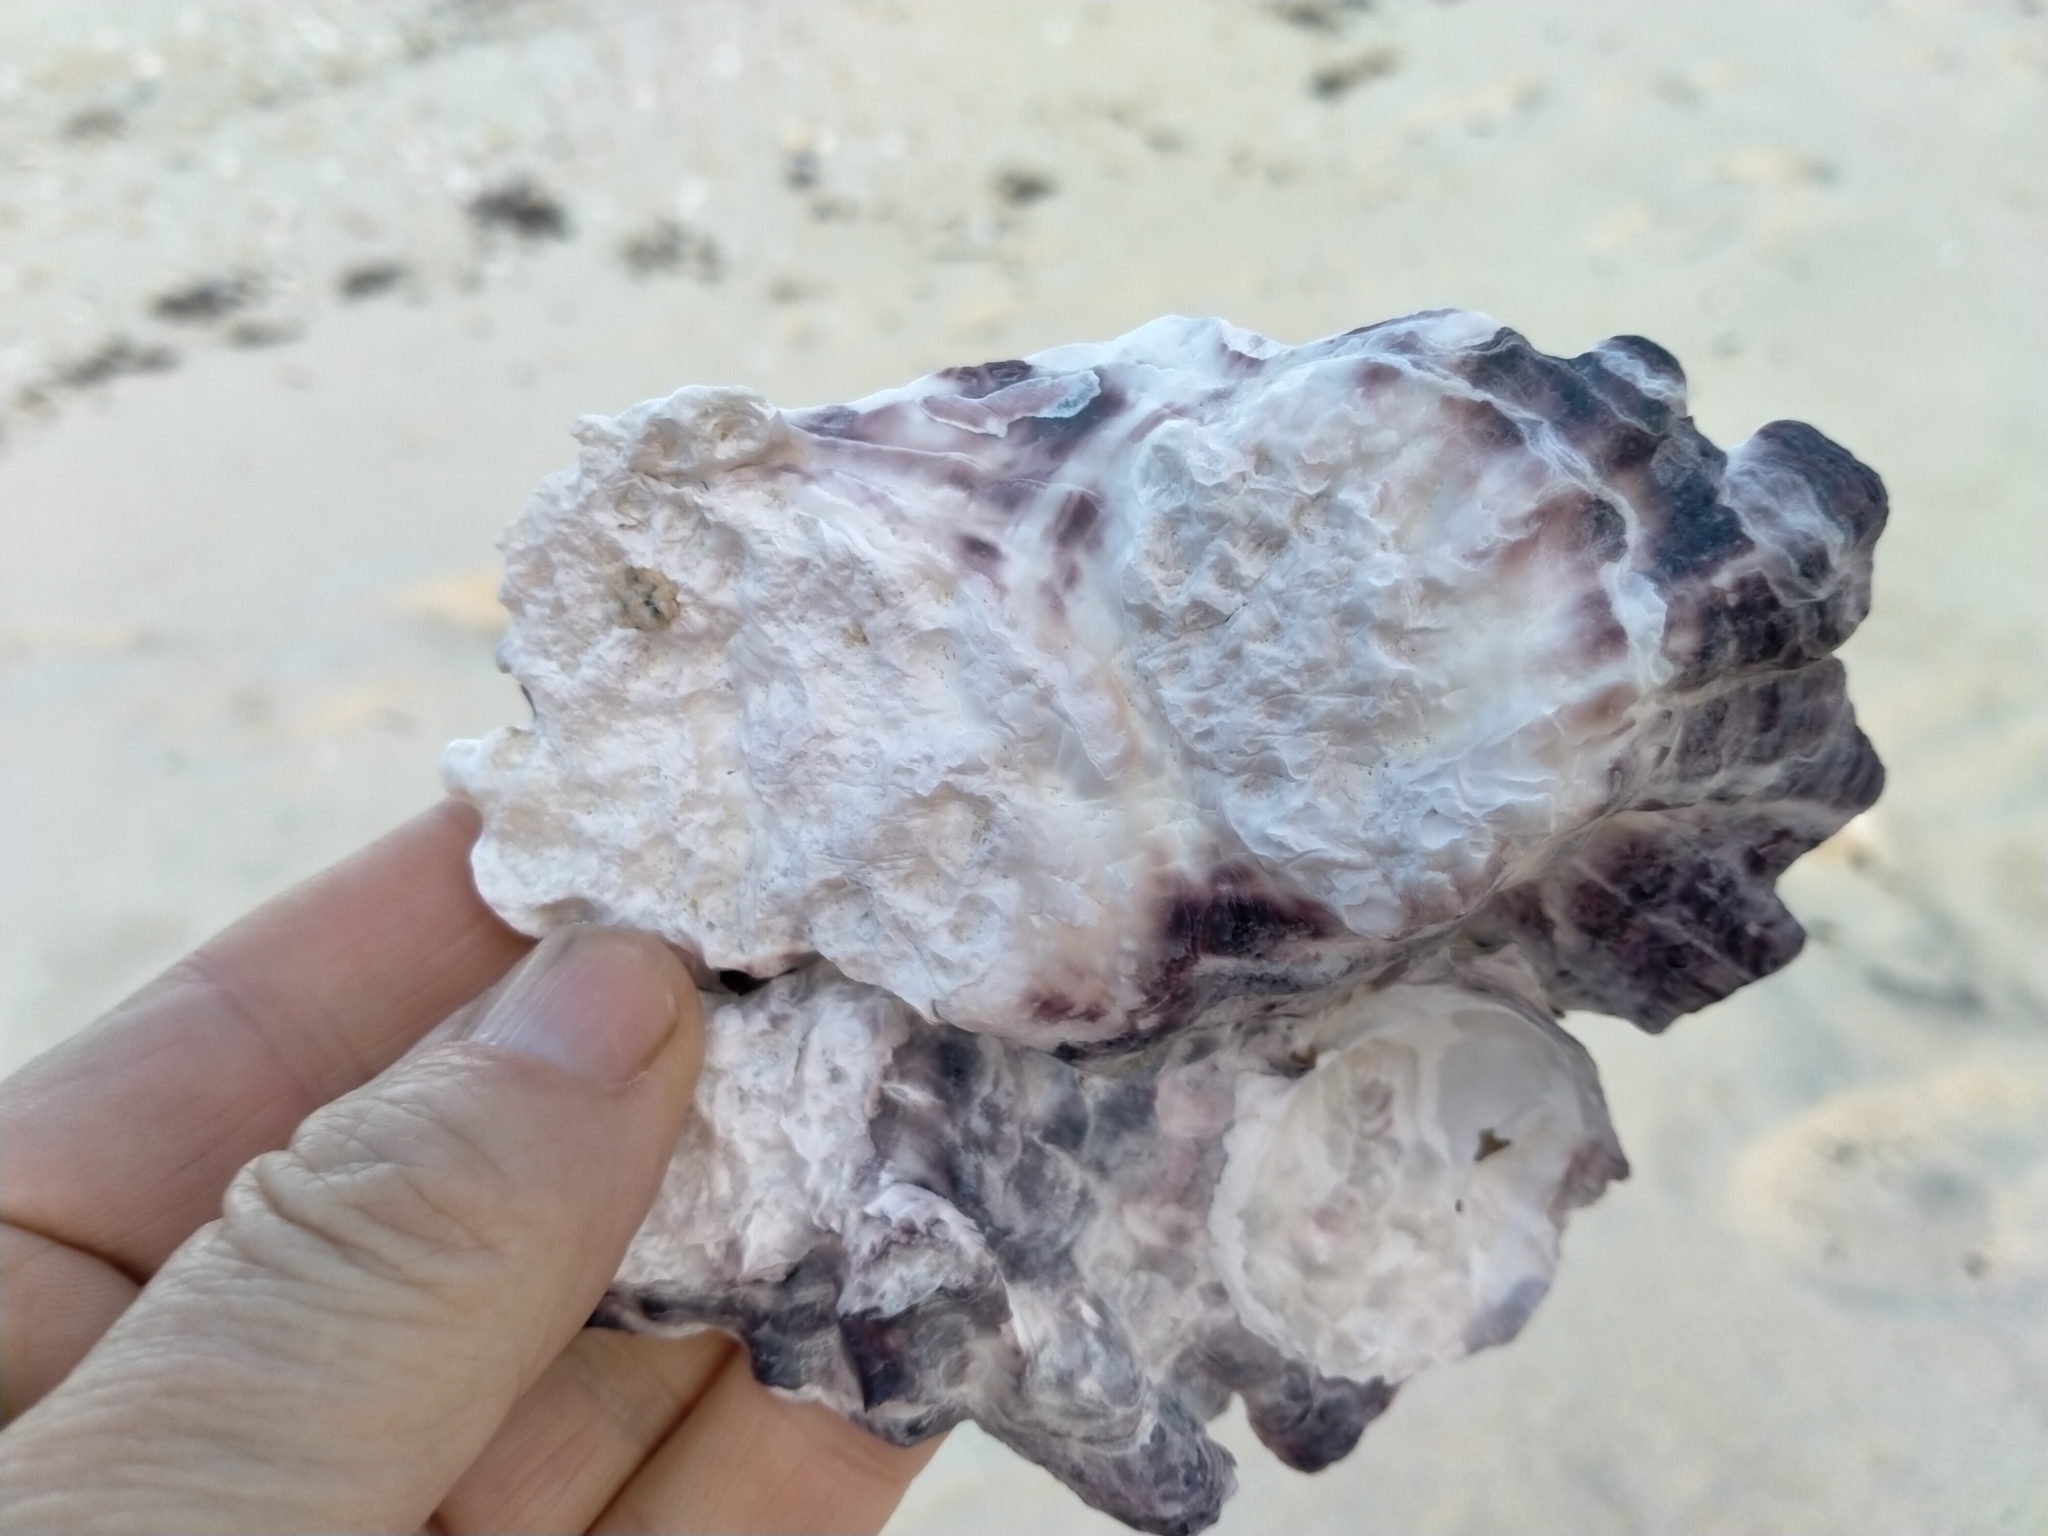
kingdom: Animalia
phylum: Mollusca
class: Bivalvia
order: Ostreida
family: Ostreidae
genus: Magallana
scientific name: Magallana gigas
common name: Pacific oyster
